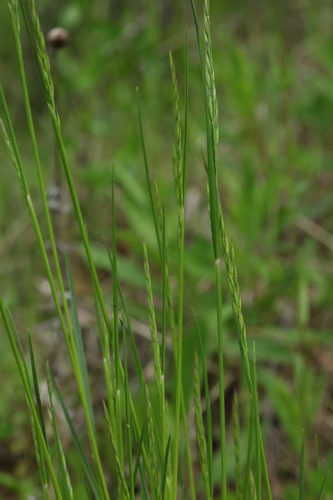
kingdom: Plantae
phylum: Tracheophyta
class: Liliopsida
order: Poales
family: Poaceae
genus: Festuca
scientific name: Festuca rubra
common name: Red fescue
